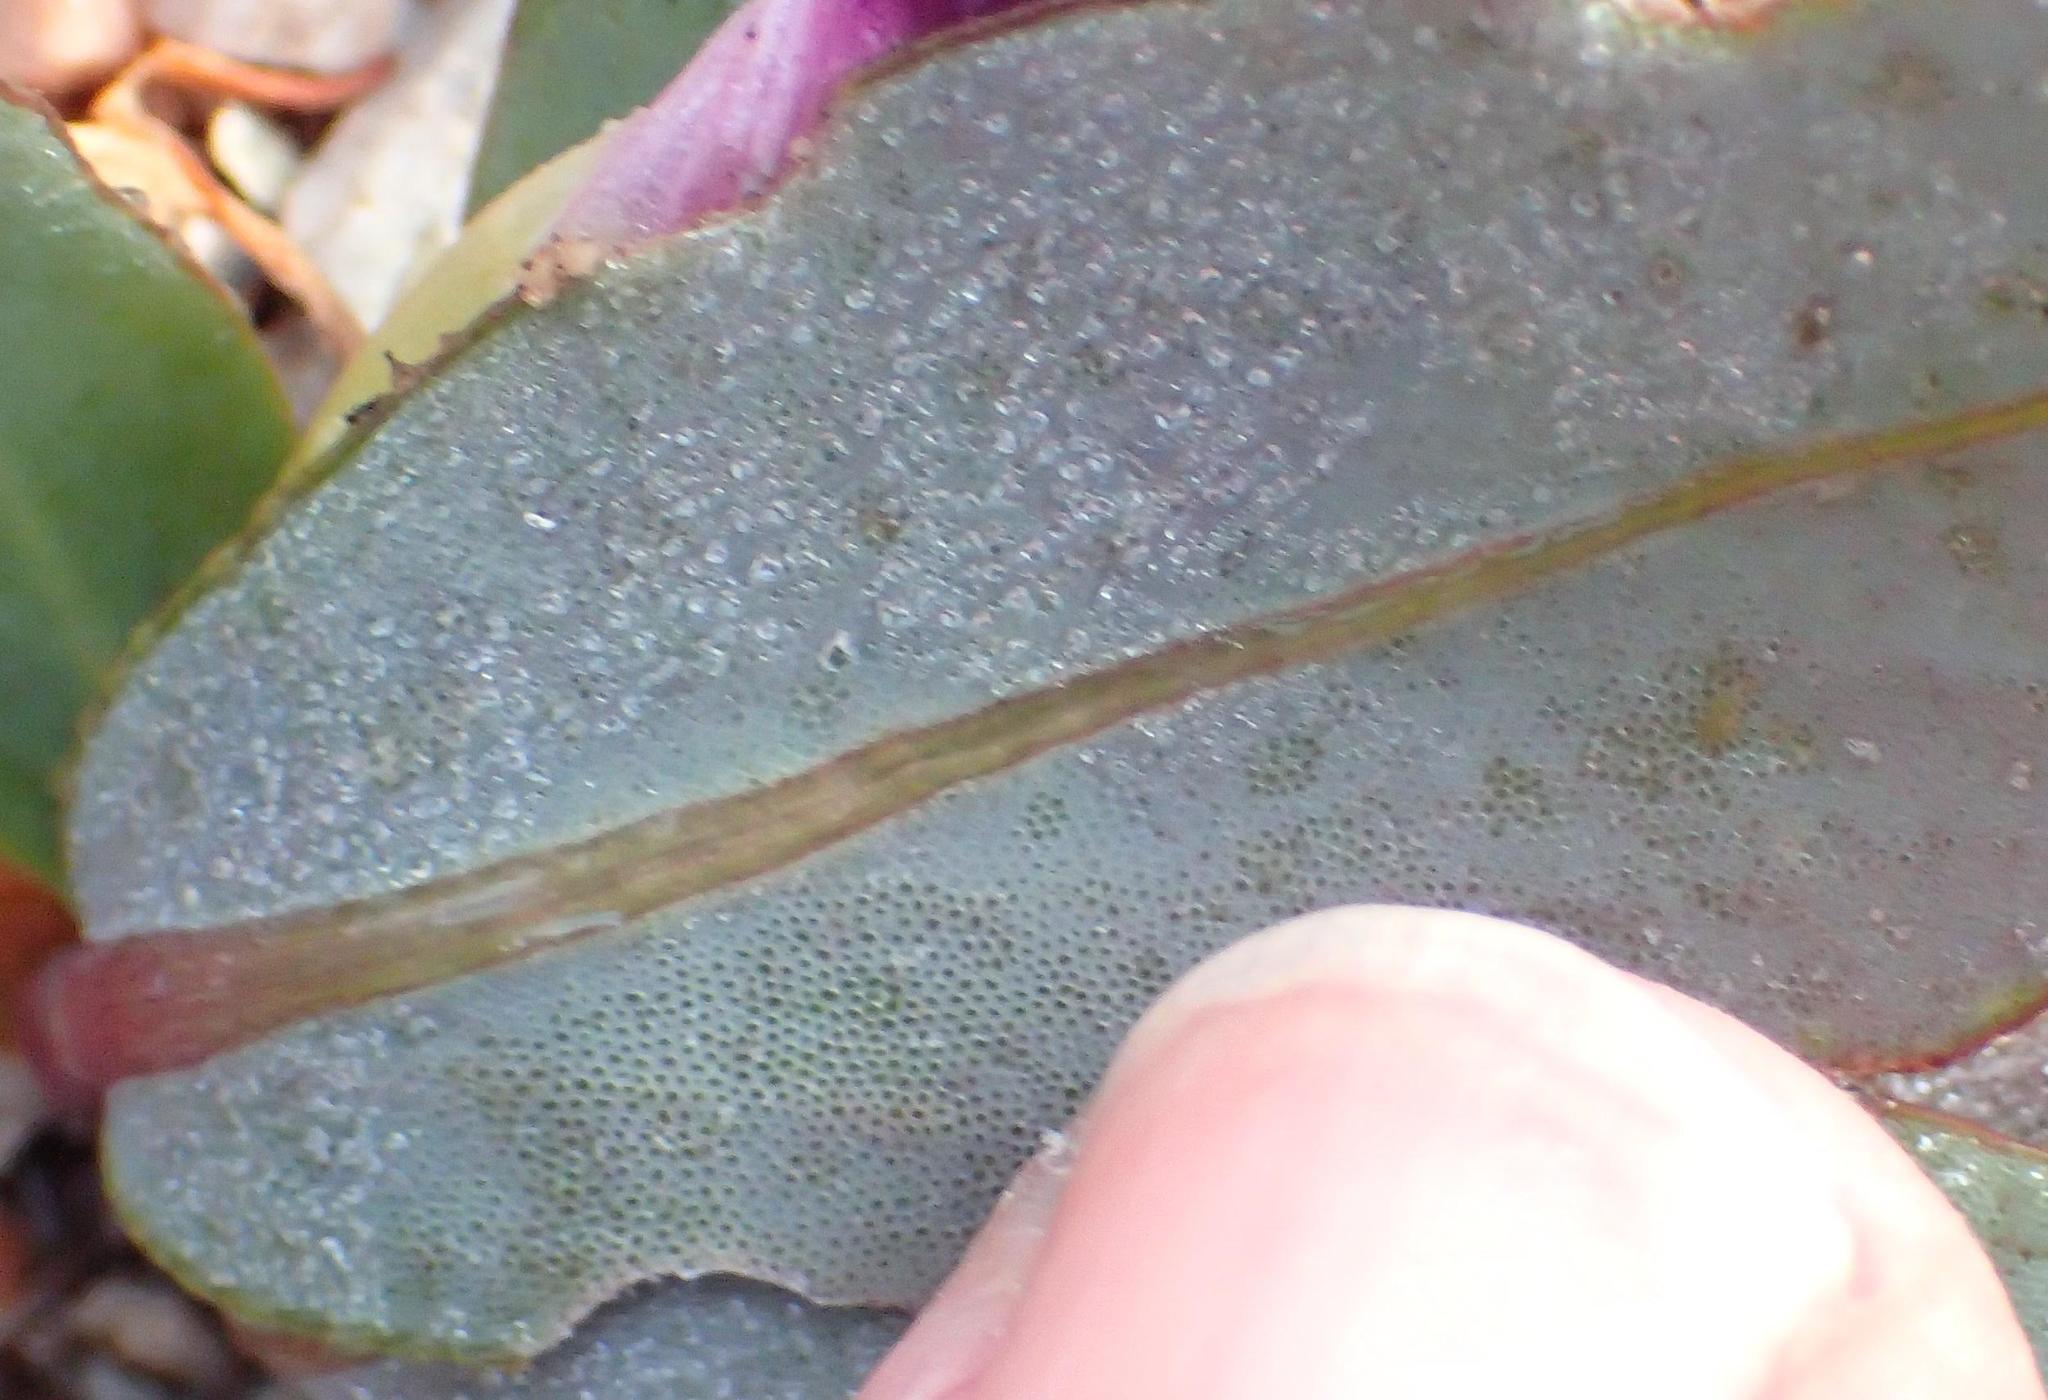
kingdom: Plantae
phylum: Tracheophyta
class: Magnoliopsida
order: Oxalidales
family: Oxalidaceae
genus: Oxalis
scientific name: Oxalis nortieri
